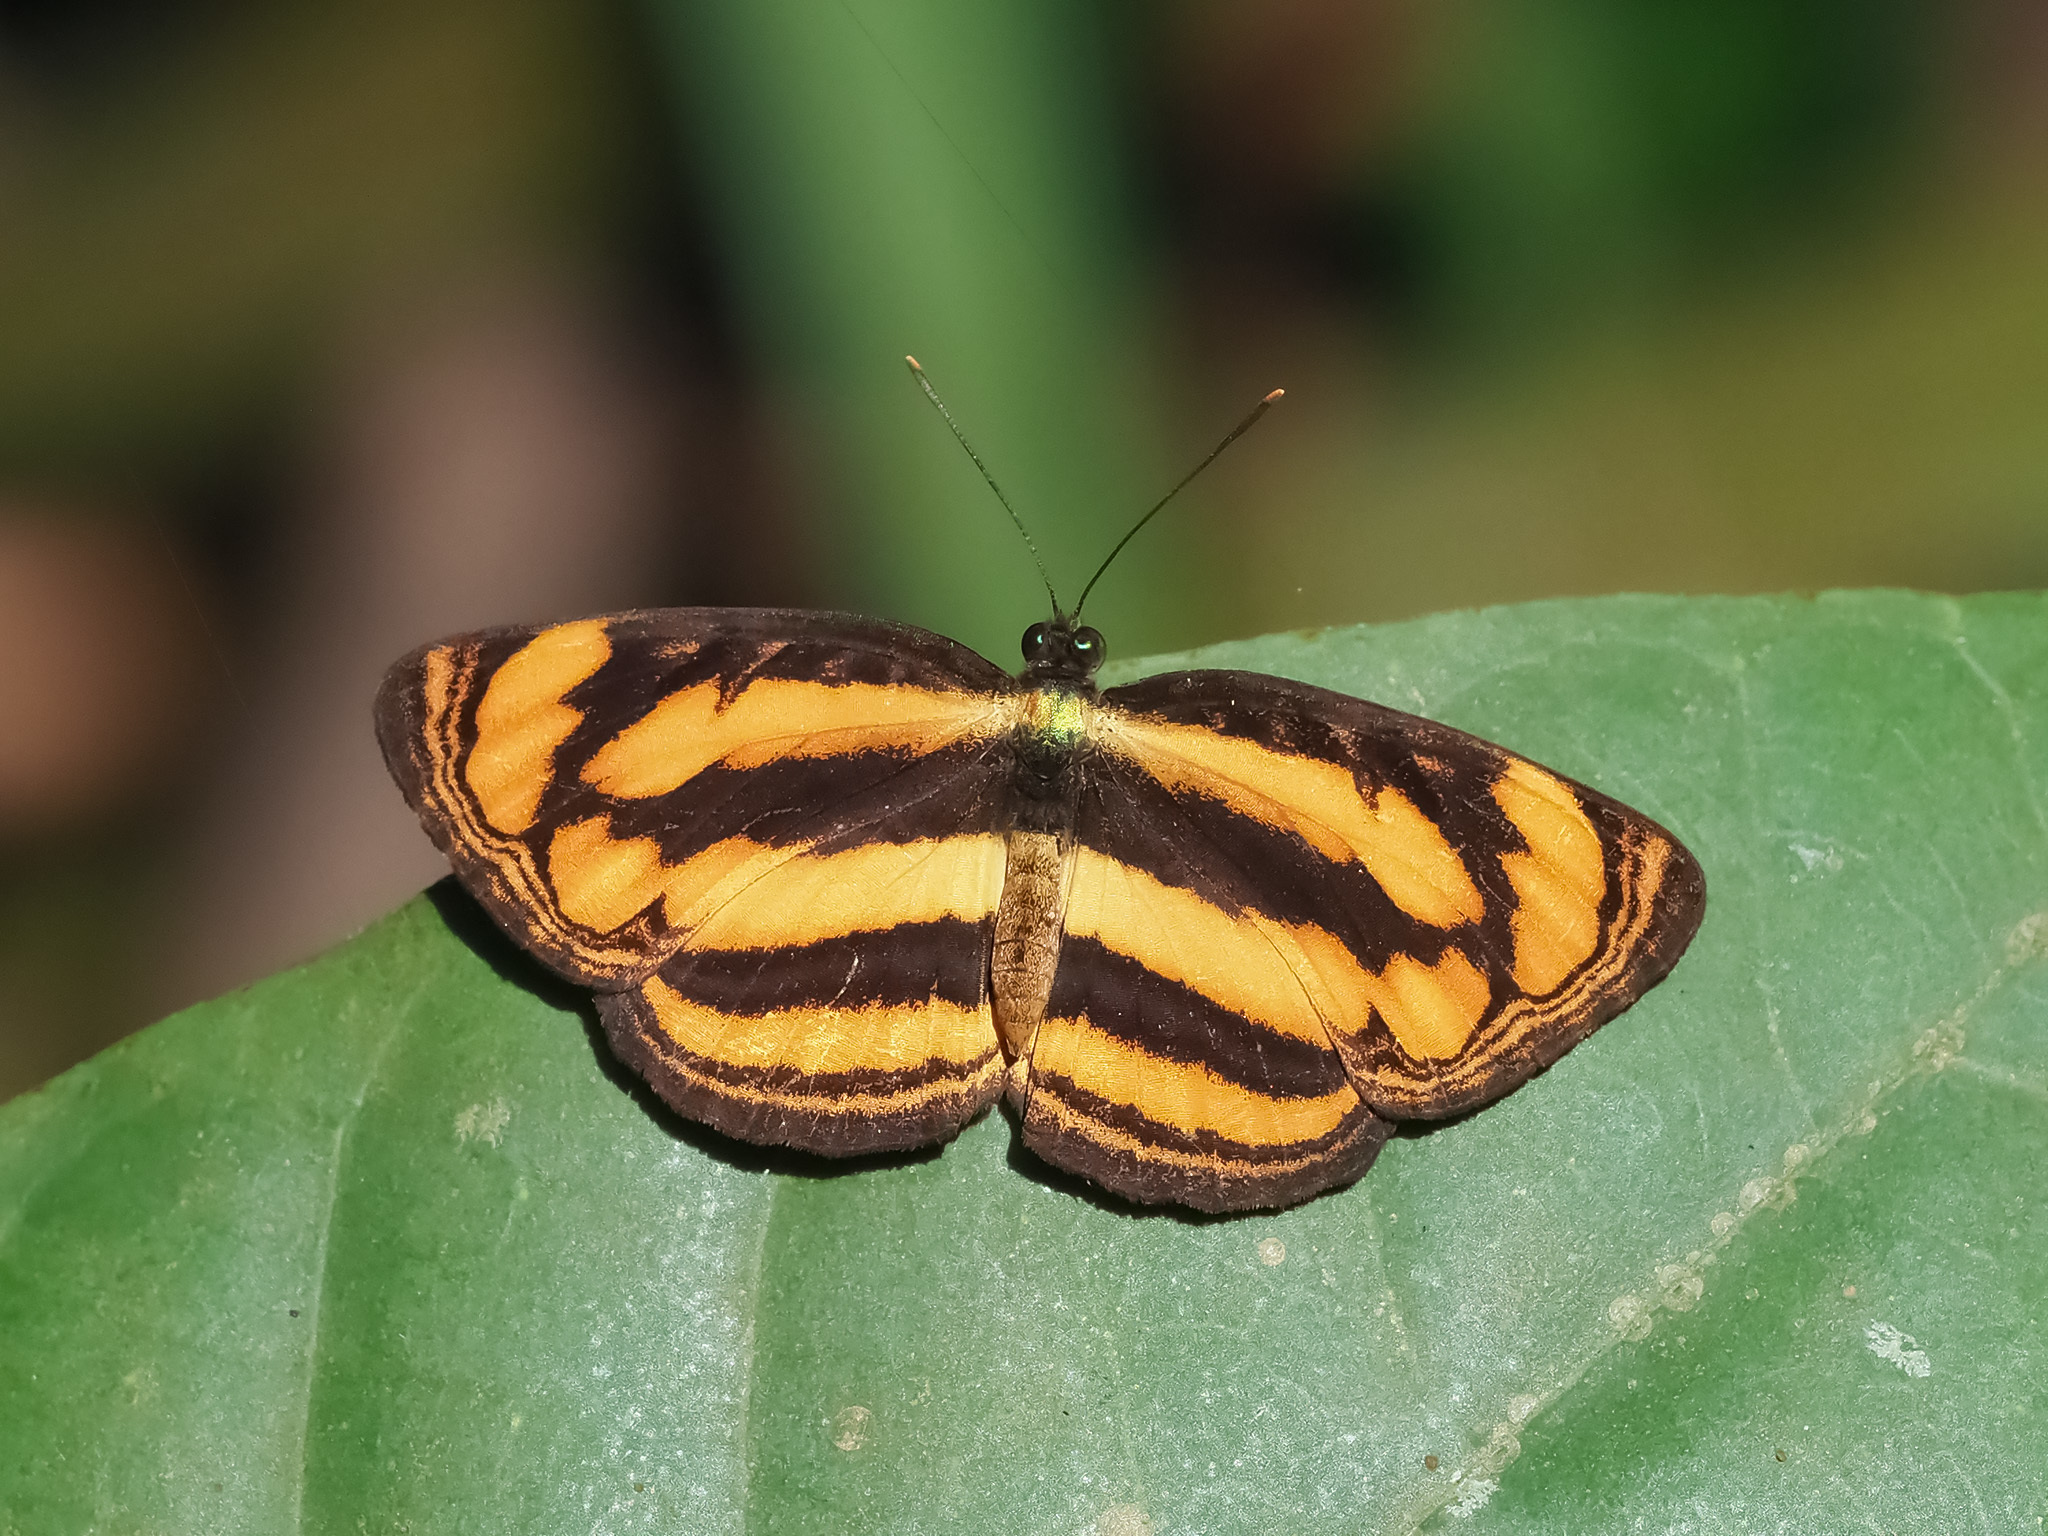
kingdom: Animalia
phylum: Arthropoda
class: Insecta
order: Lepidoptera
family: Nymphalidae
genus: Pantoporia
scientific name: Pantoporia paraka
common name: Perak lascar
